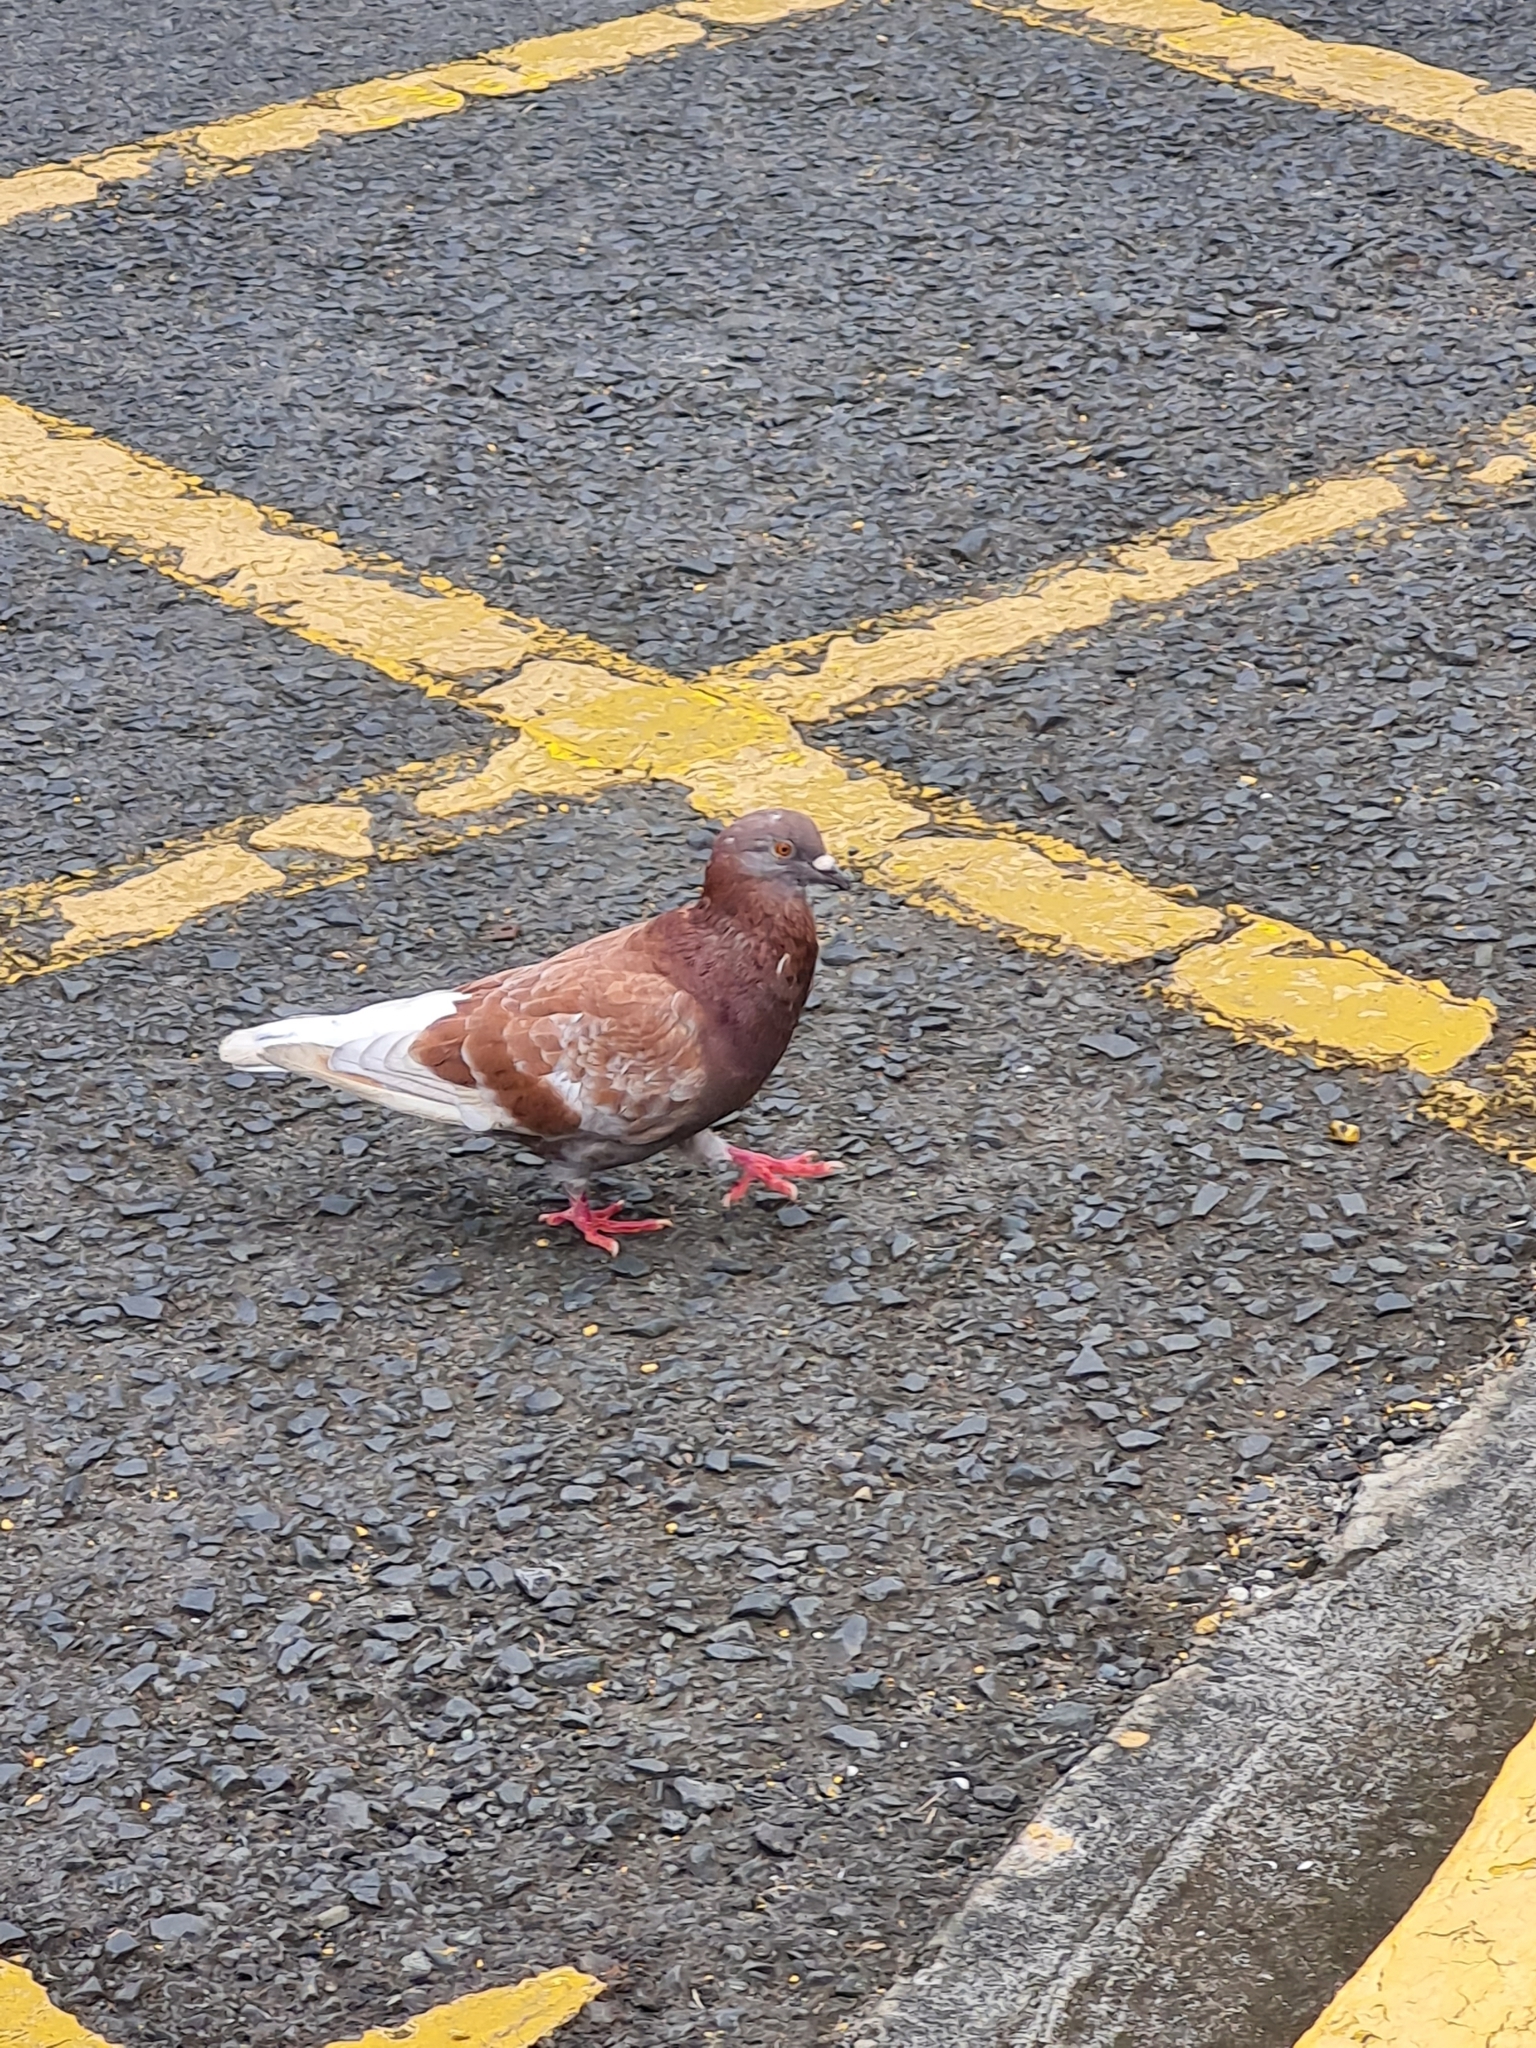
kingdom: Animalia
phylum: Chordata
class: Aves
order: Columbiformes
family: Columbidae
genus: Columba
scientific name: Columba livia
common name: Rock pigeon
